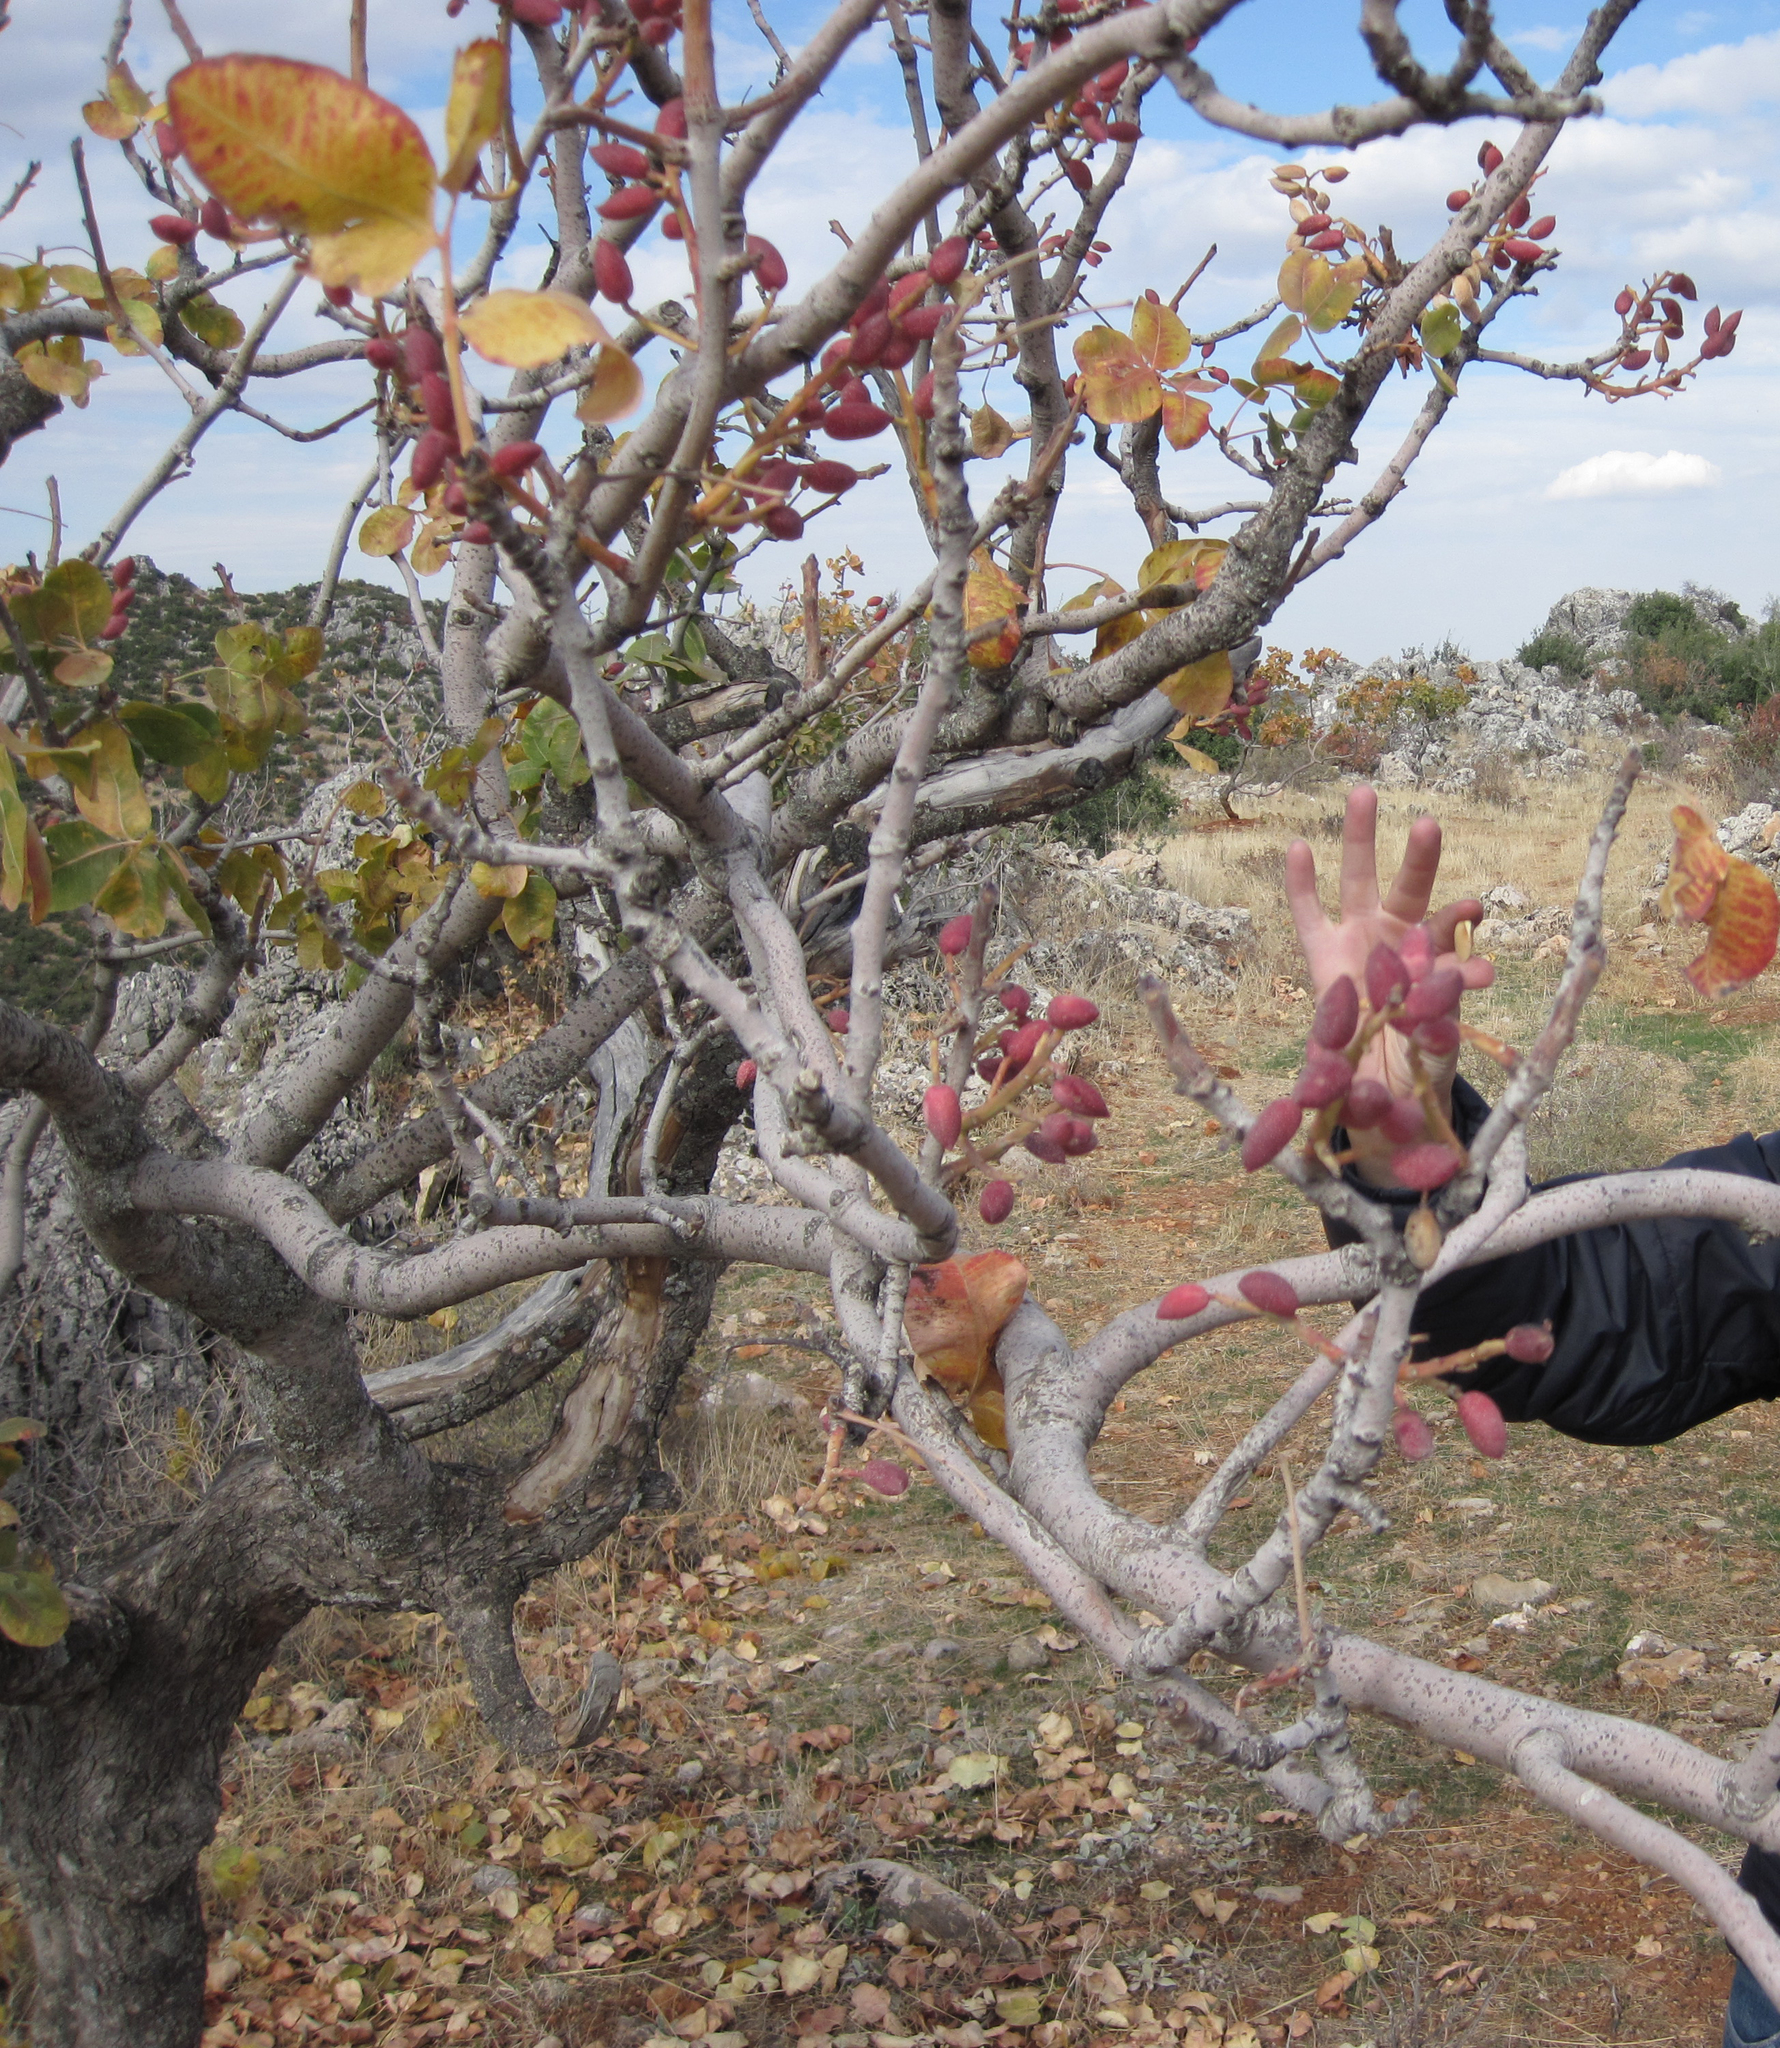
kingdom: Plantae
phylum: Tracheophyta
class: Magnoliopsida
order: Sapindales
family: Anacardiaceae
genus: Pistacia
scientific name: Pistacia vera
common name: Pistachio
